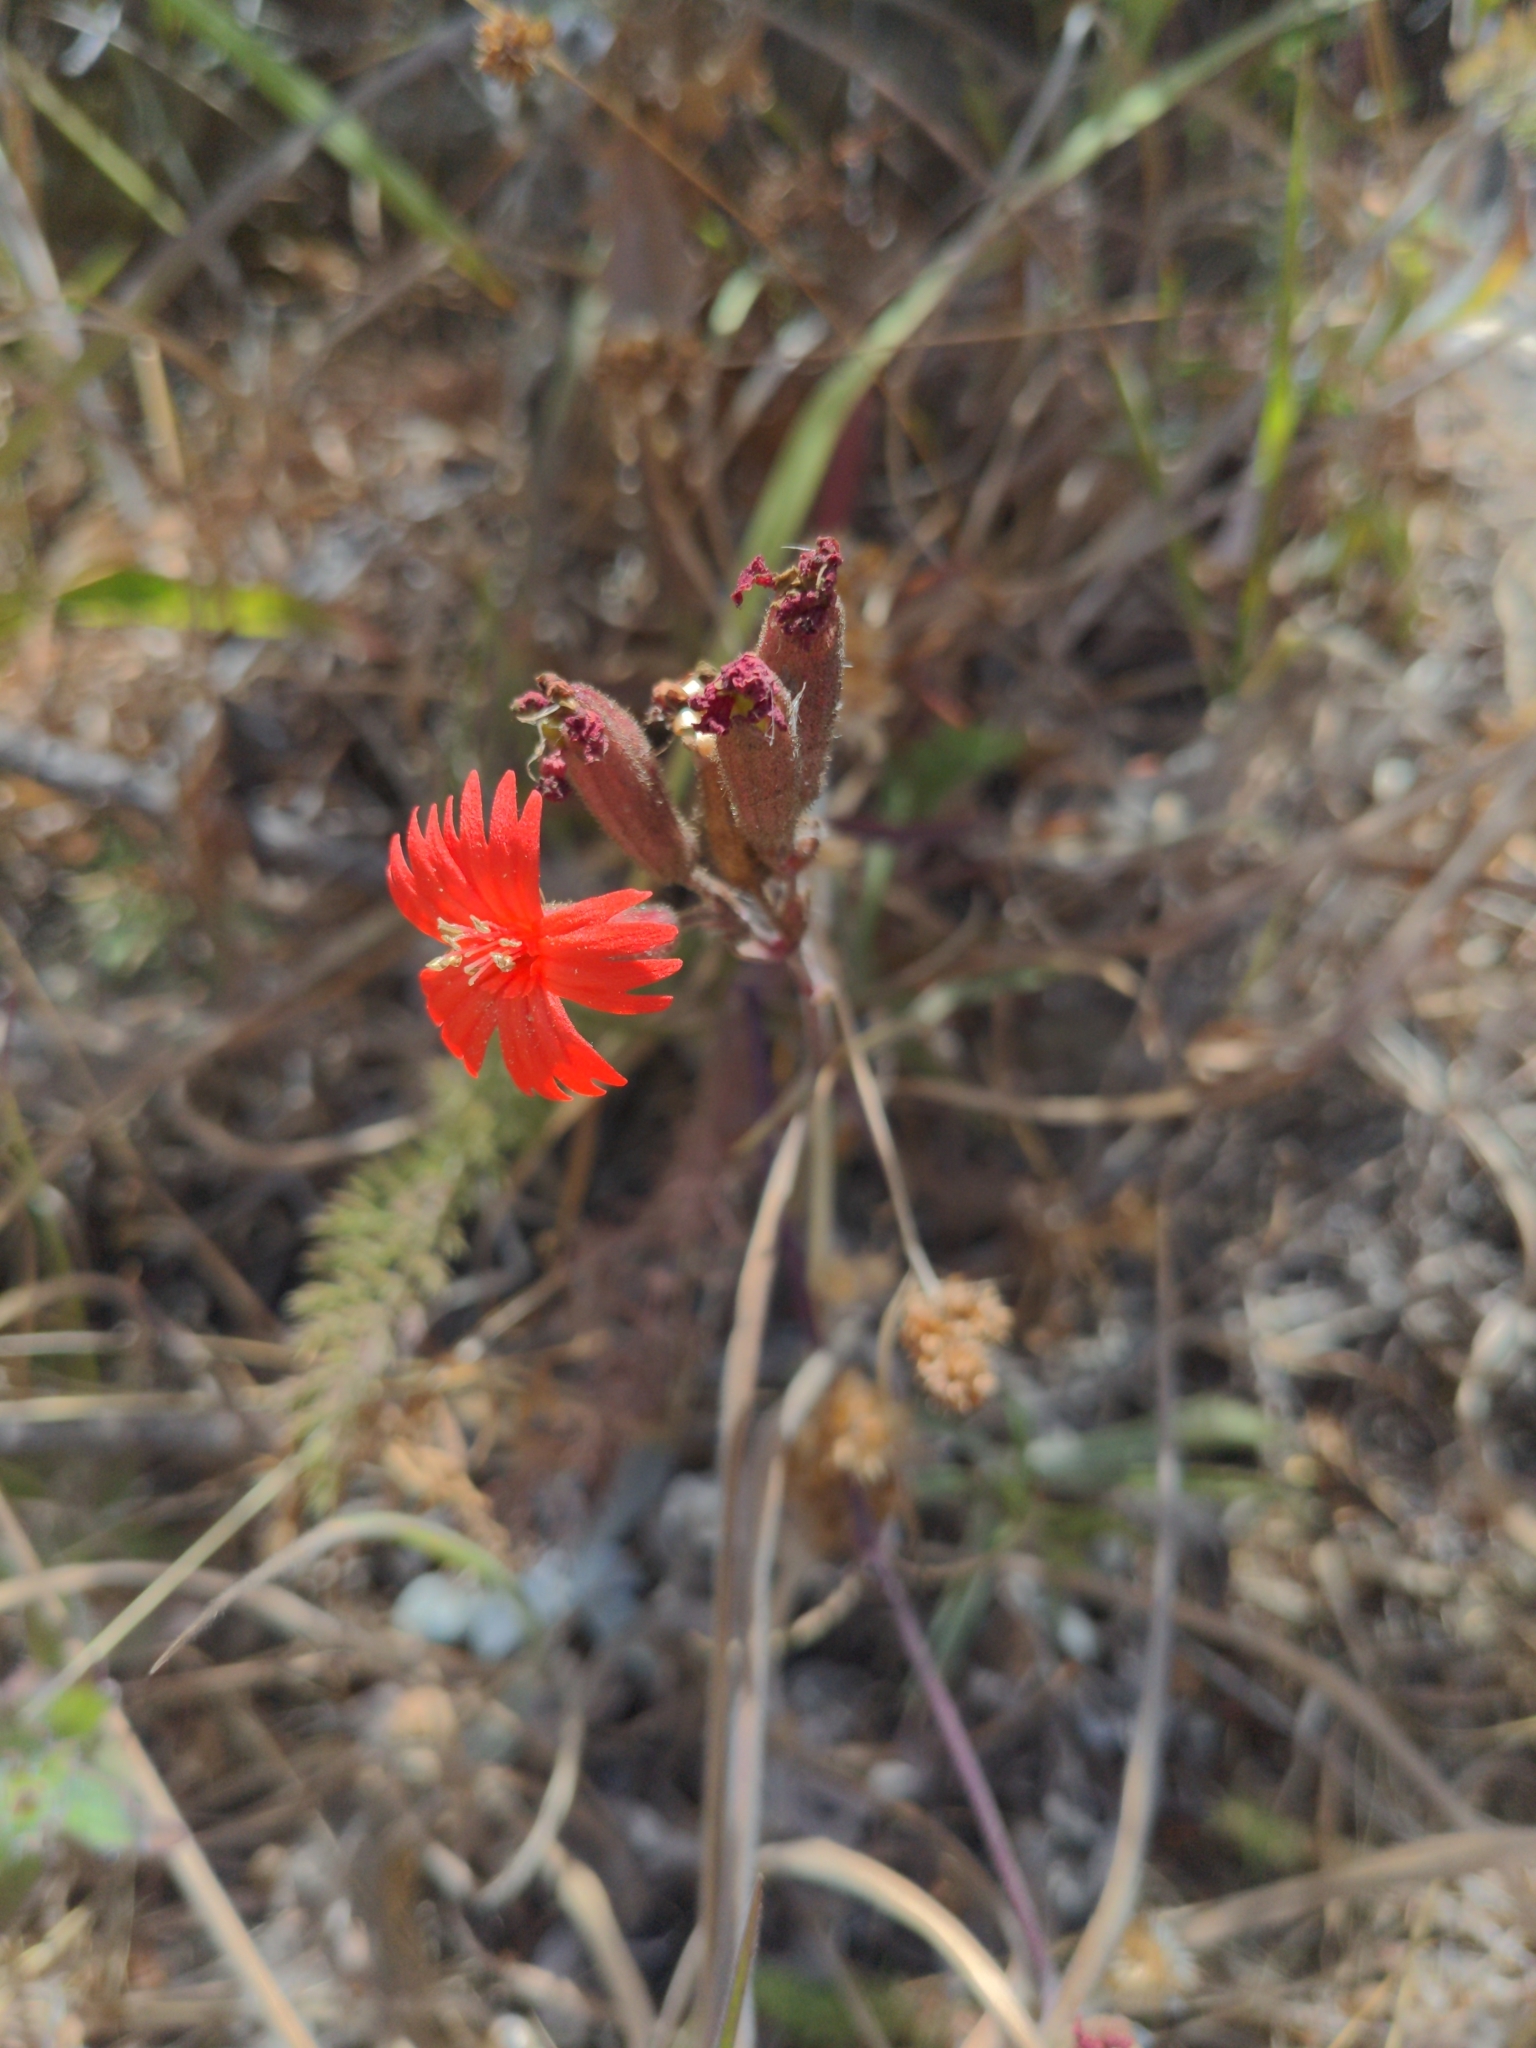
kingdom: Plantae
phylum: Tracheophyta
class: Magnoliopsida
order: Caryophyllales
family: Caryophyllaceae
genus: Silene
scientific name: Silene laciniata
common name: Indian-pink
